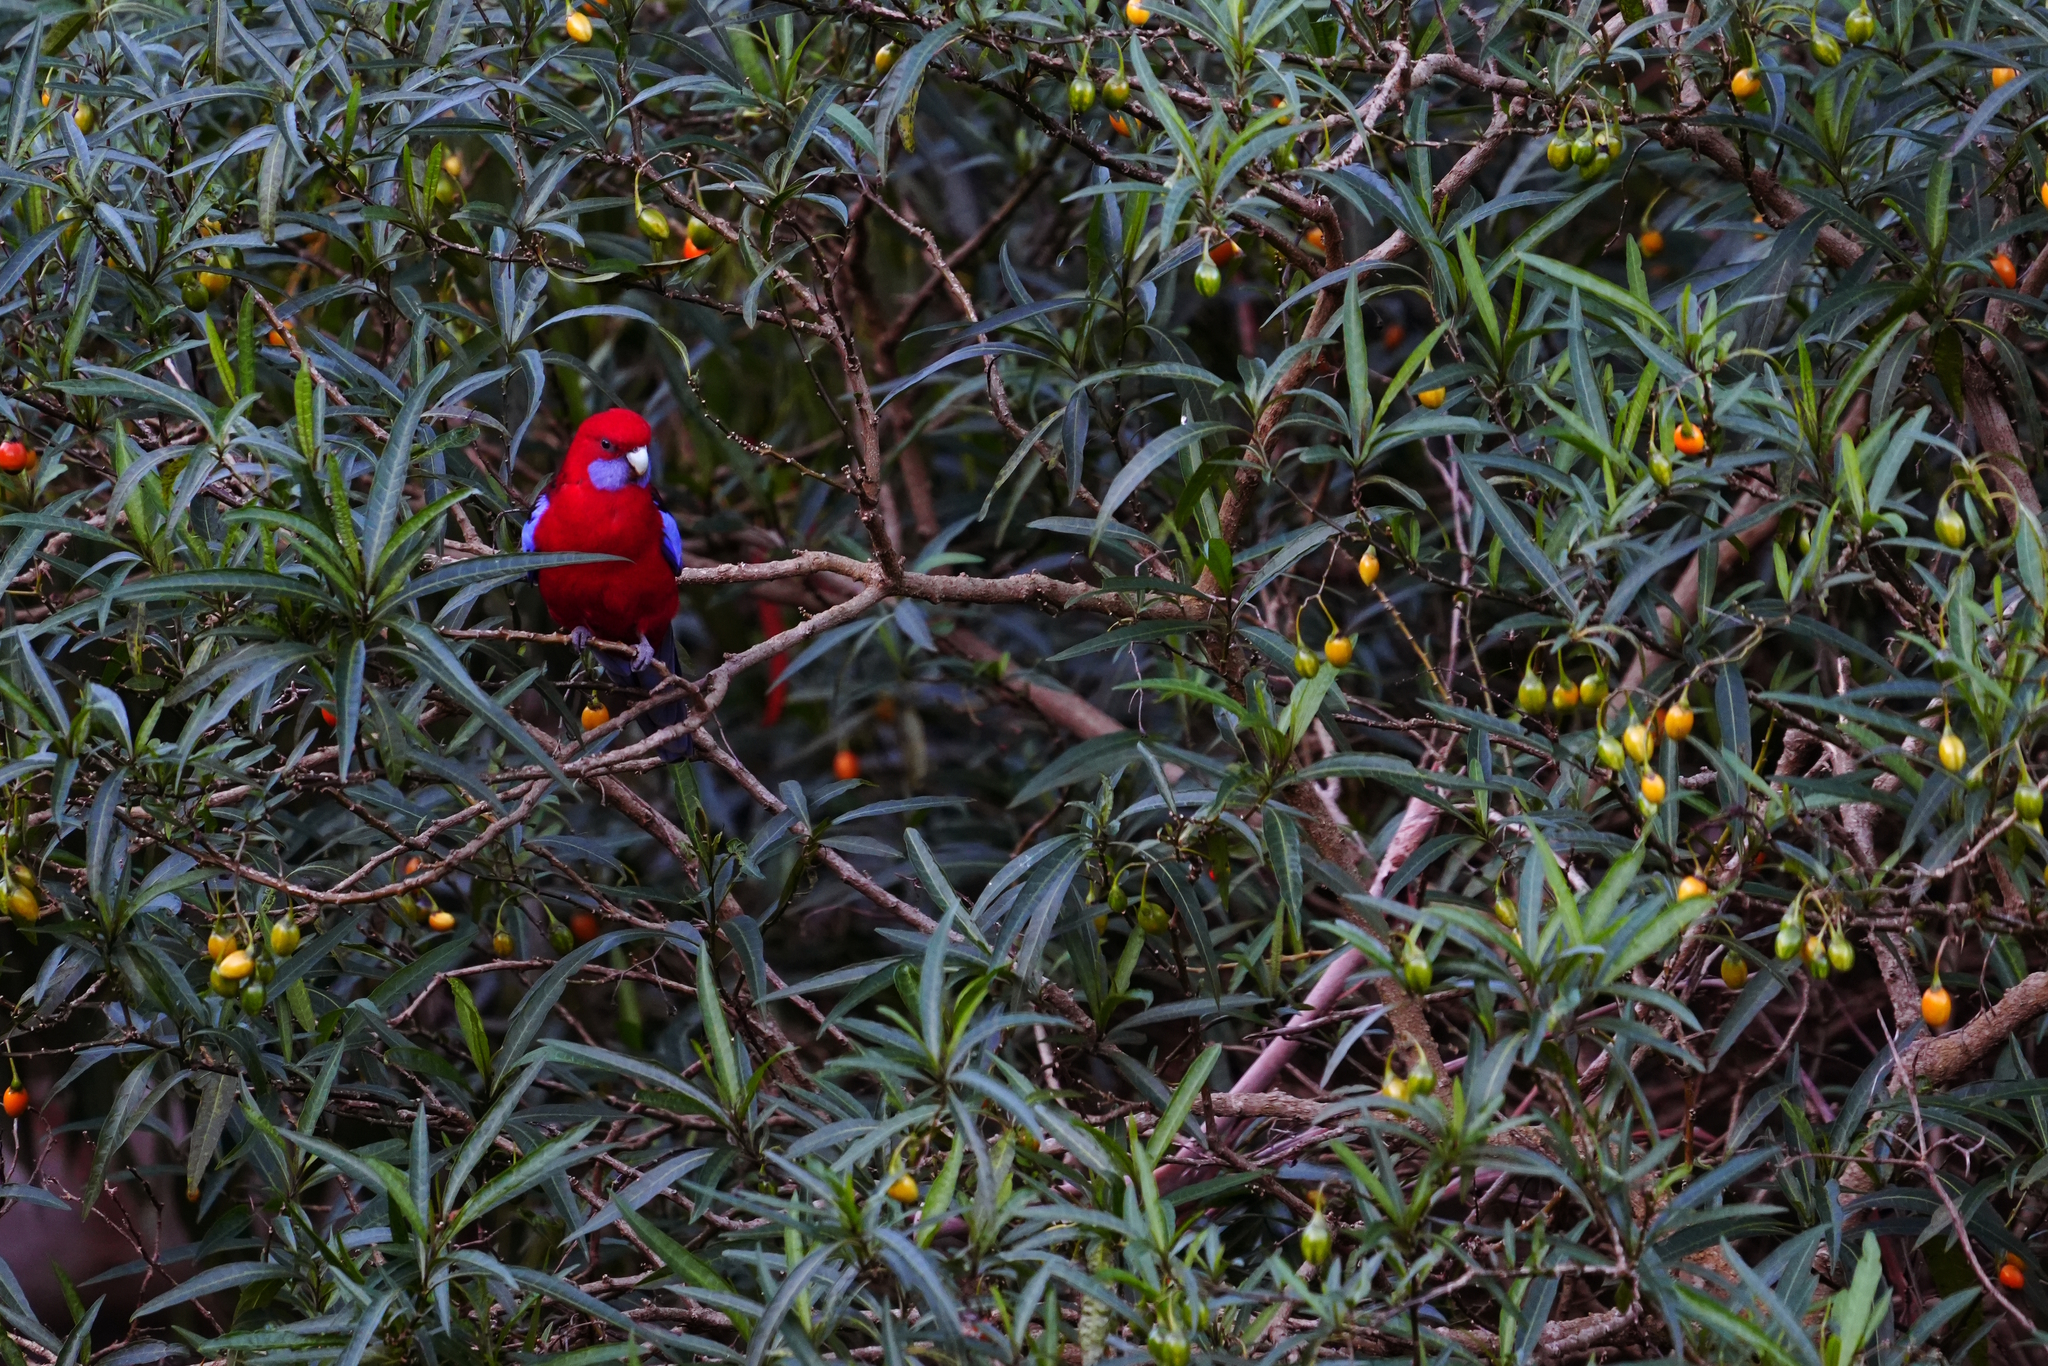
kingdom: Animalia
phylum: Chordata
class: Aves
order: Psittaciformes
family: Psittacidae
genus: Platycercus
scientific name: Platycercus elegans
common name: Crimson rosella
